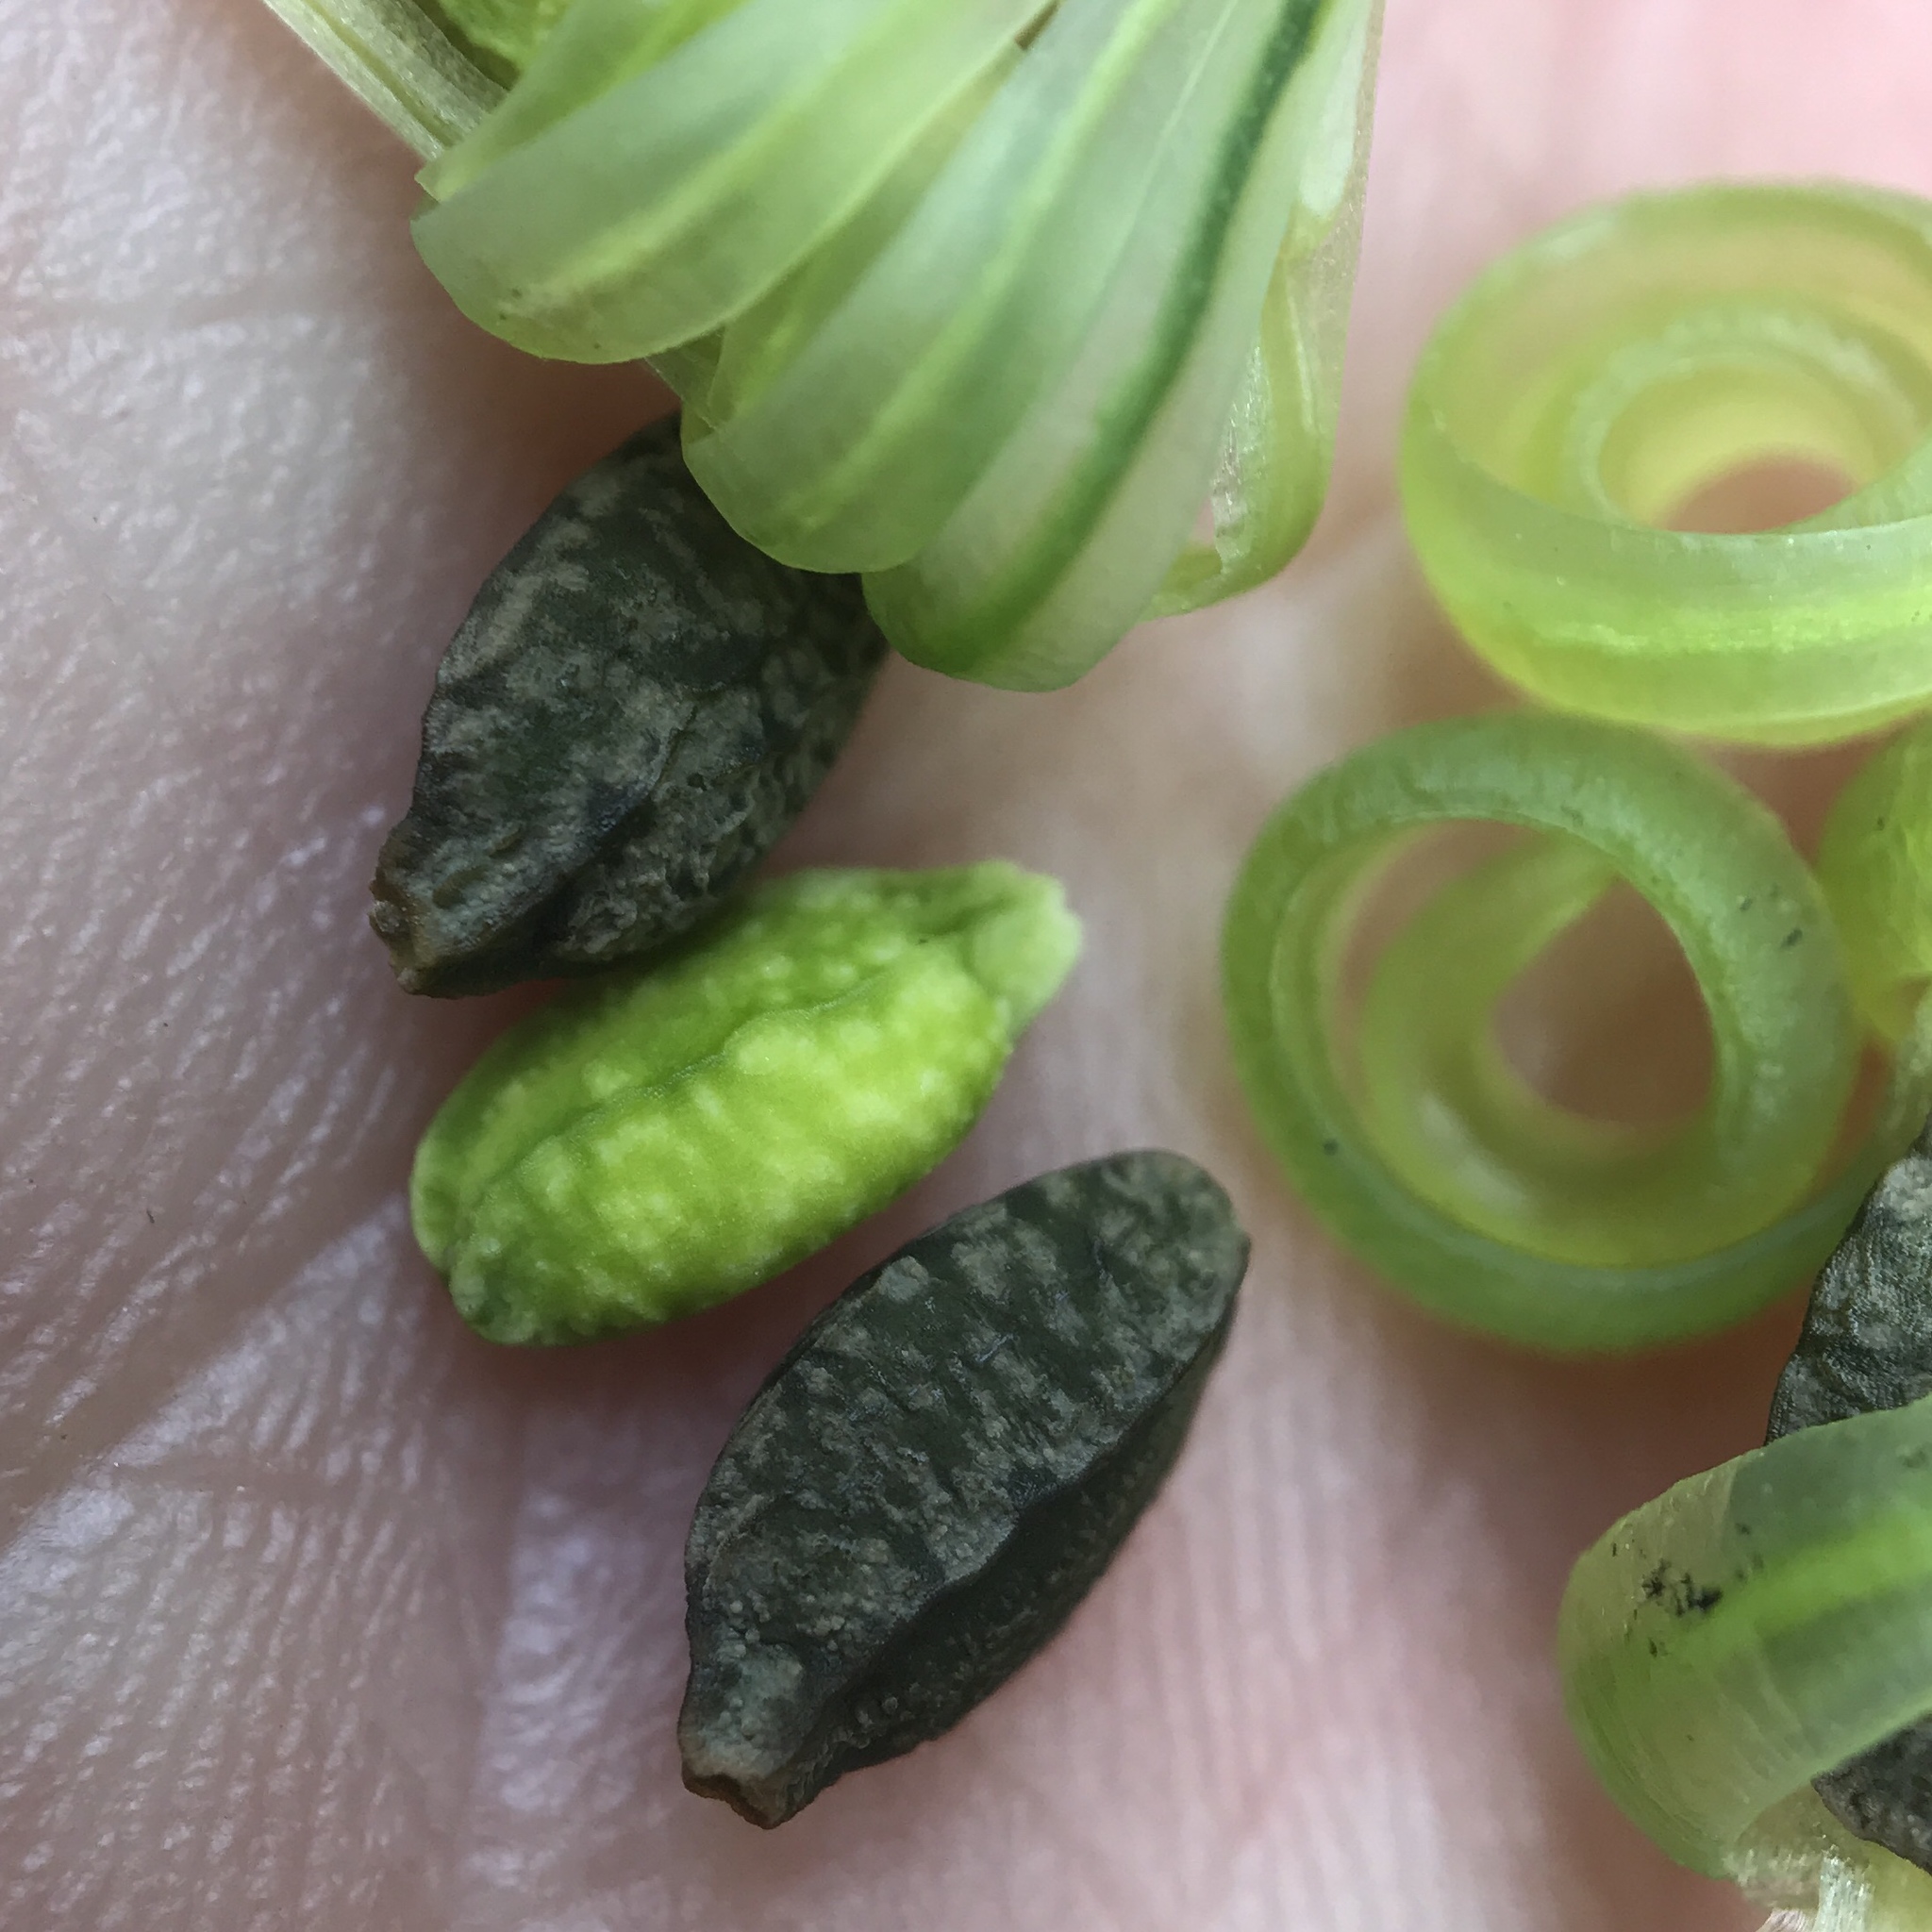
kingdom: Plantae
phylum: Tracheophyta
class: Magnoliopsida
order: Ericales
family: Balsaminaceae
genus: Impatiens
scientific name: Impatiens pallida
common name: Pale snapweed
